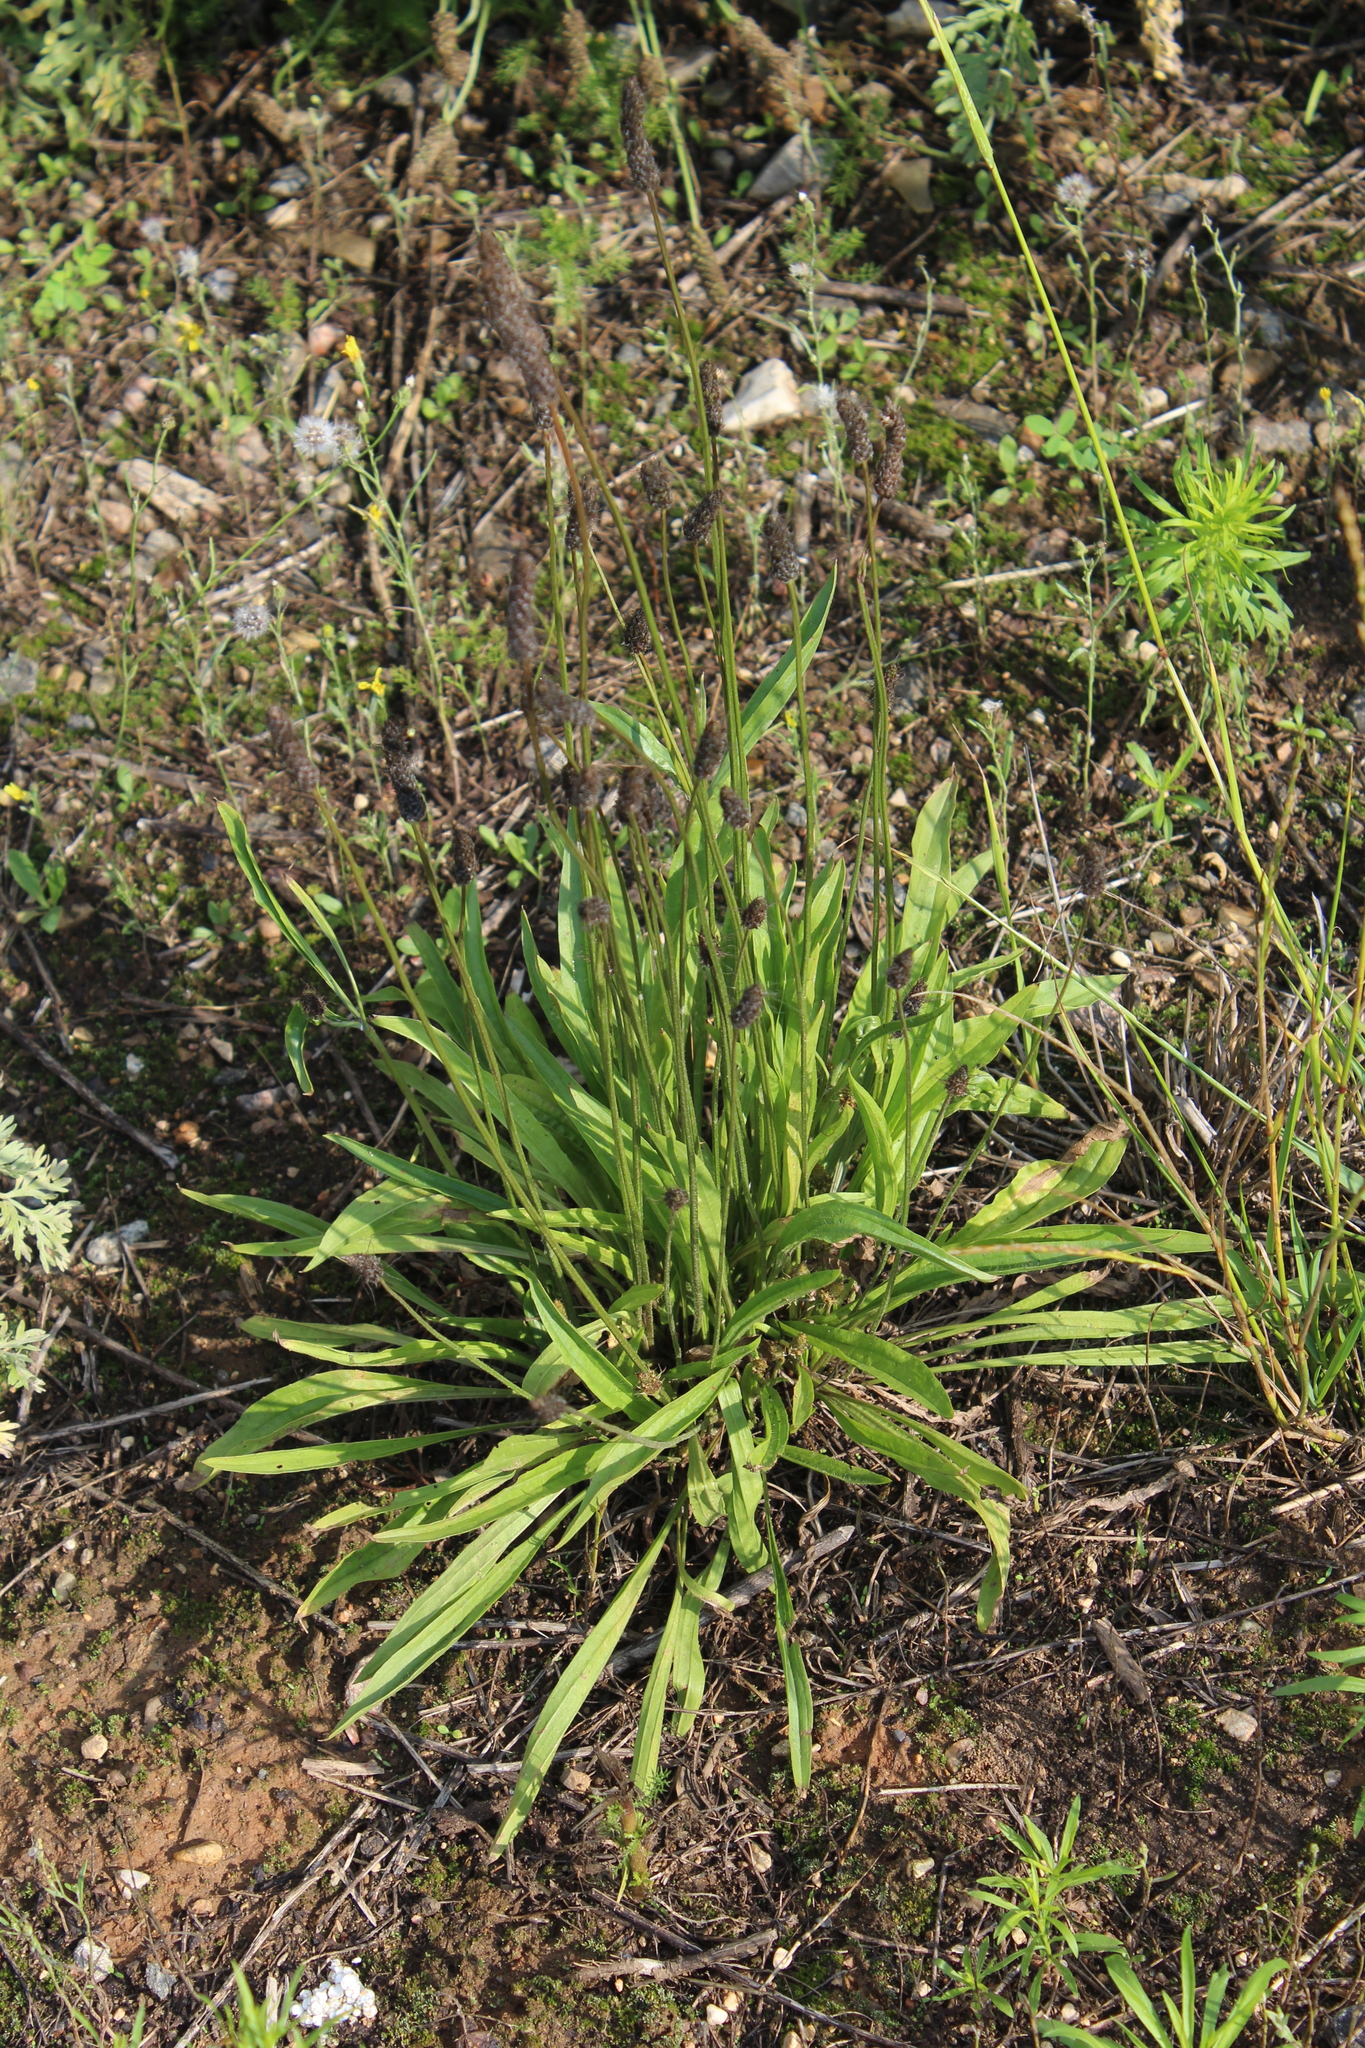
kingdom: Plantae
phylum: Tracheophyta
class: Magnoliopsida
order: Lamiales
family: Plantaginaceae
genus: Plantago
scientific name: Plantago lanceolata
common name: Ribwort plantain
